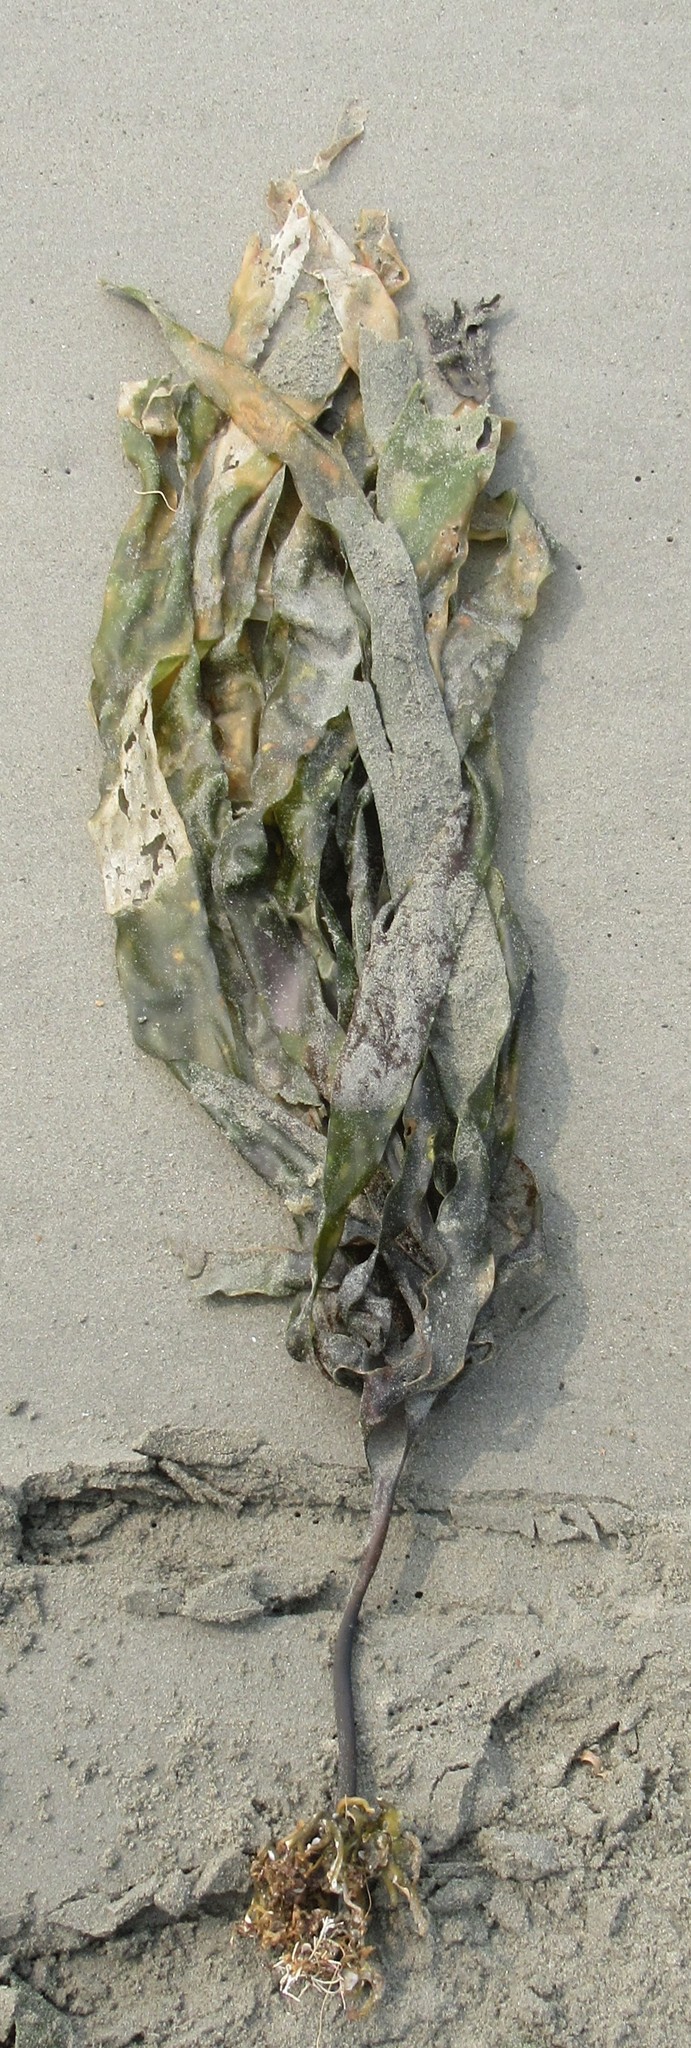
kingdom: Chromista
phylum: Ochrophyta
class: Phaeophyceae
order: Laminariales
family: Laminariaceae
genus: Laminaria
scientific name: Laminaria digitata
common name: Oarweed
